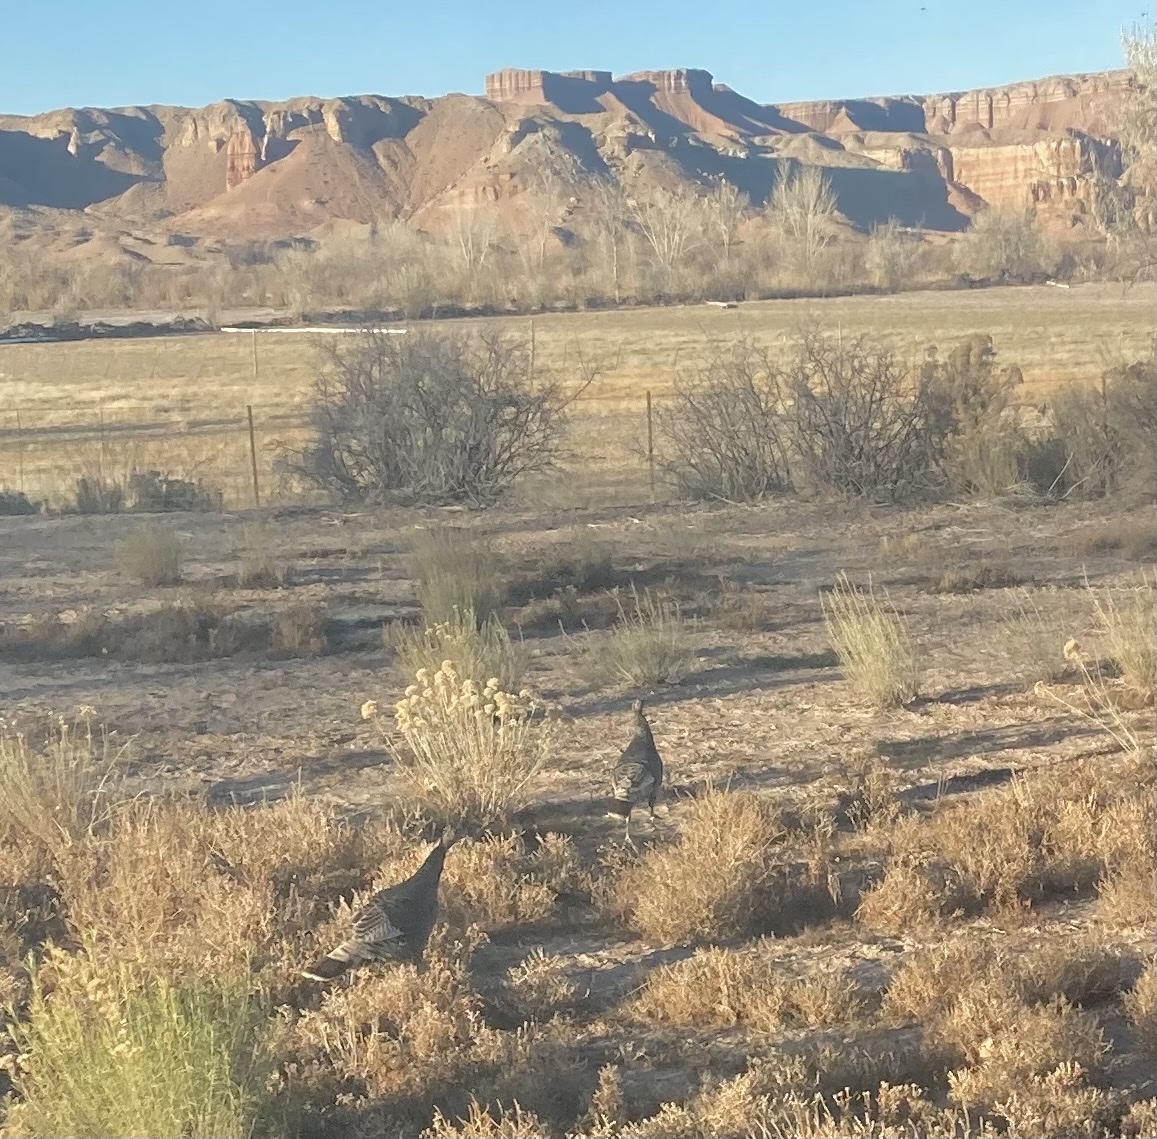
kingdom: Animalia
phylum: Chordata
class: Aves
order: Galliformes
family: Phasianidae
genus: Meleagris
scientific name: Meleagris gallopavo
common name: Wild turkey
